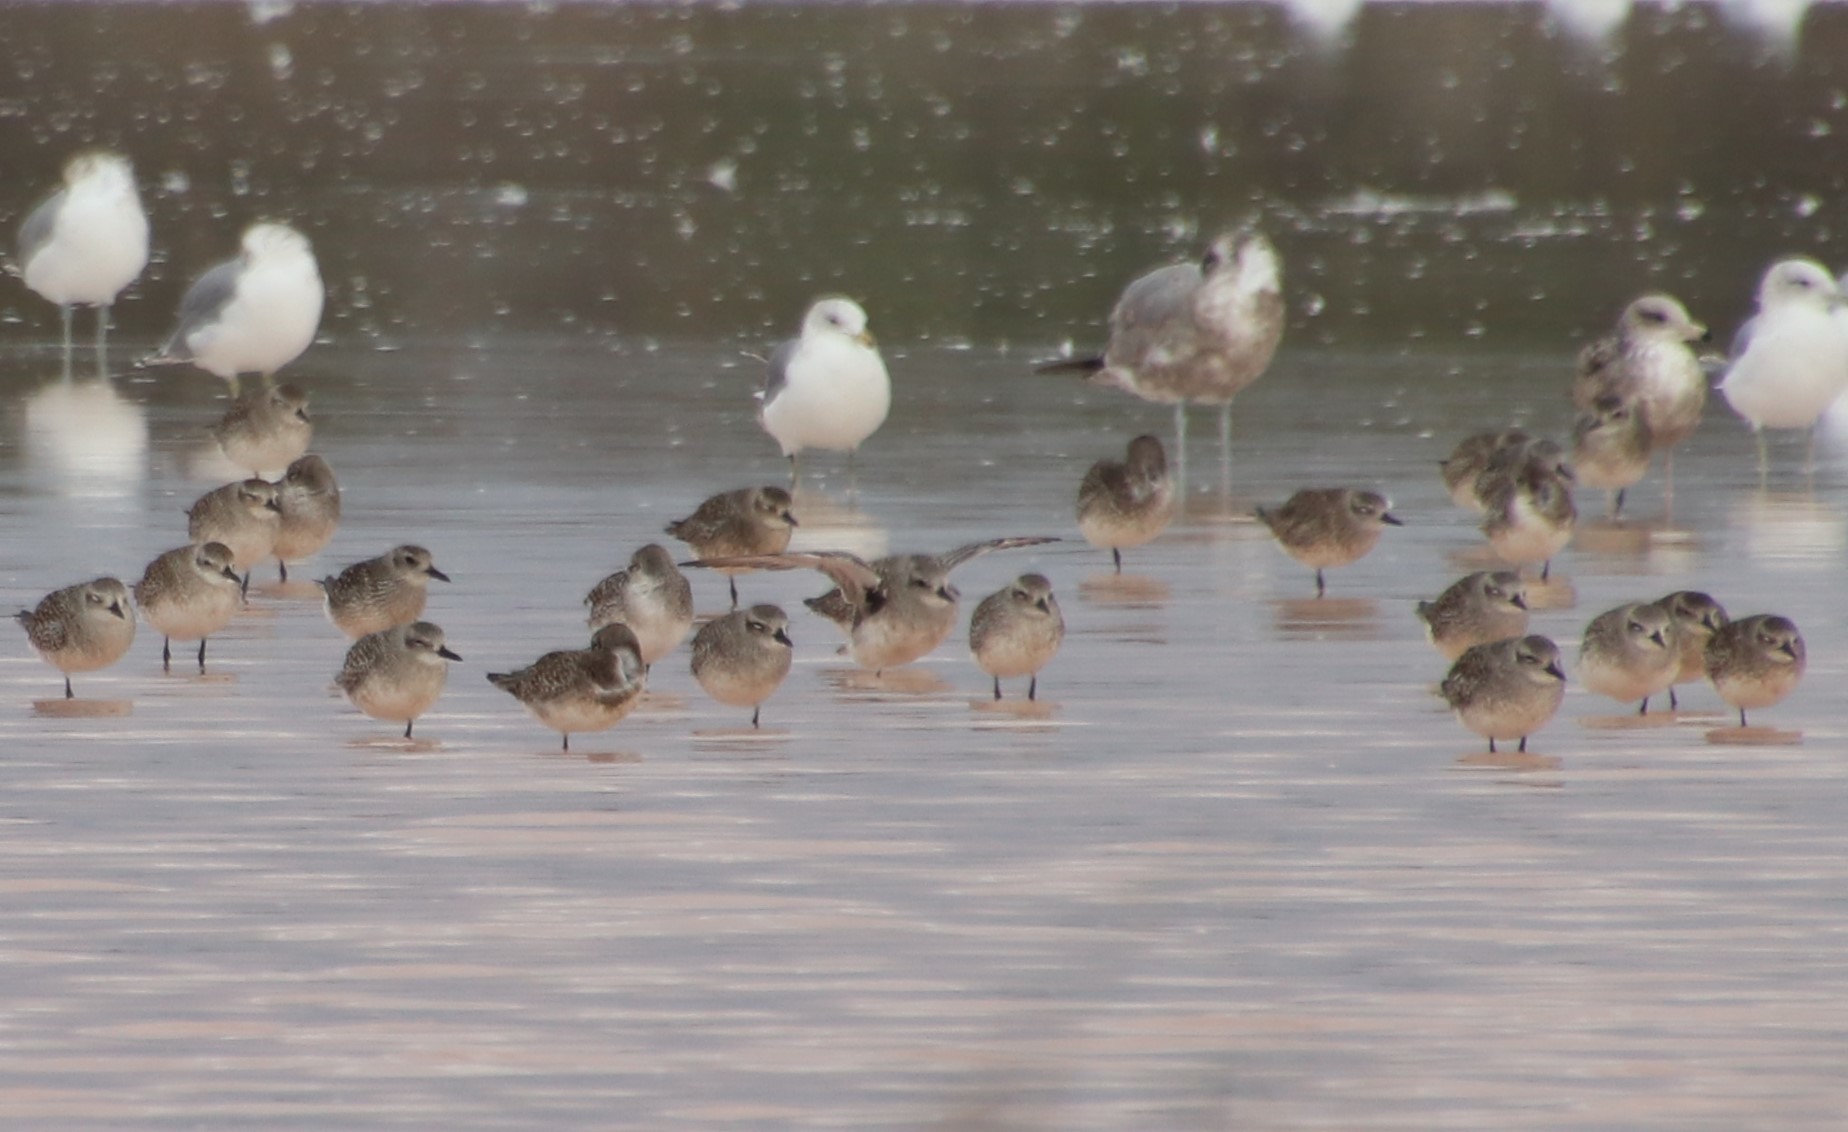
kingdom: Animalia
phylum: Chordata
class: Aves
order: Charadriiformes
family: Charadriidae
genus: Pluvialis
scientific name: Pluvialis squatarola
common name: Grey plover
